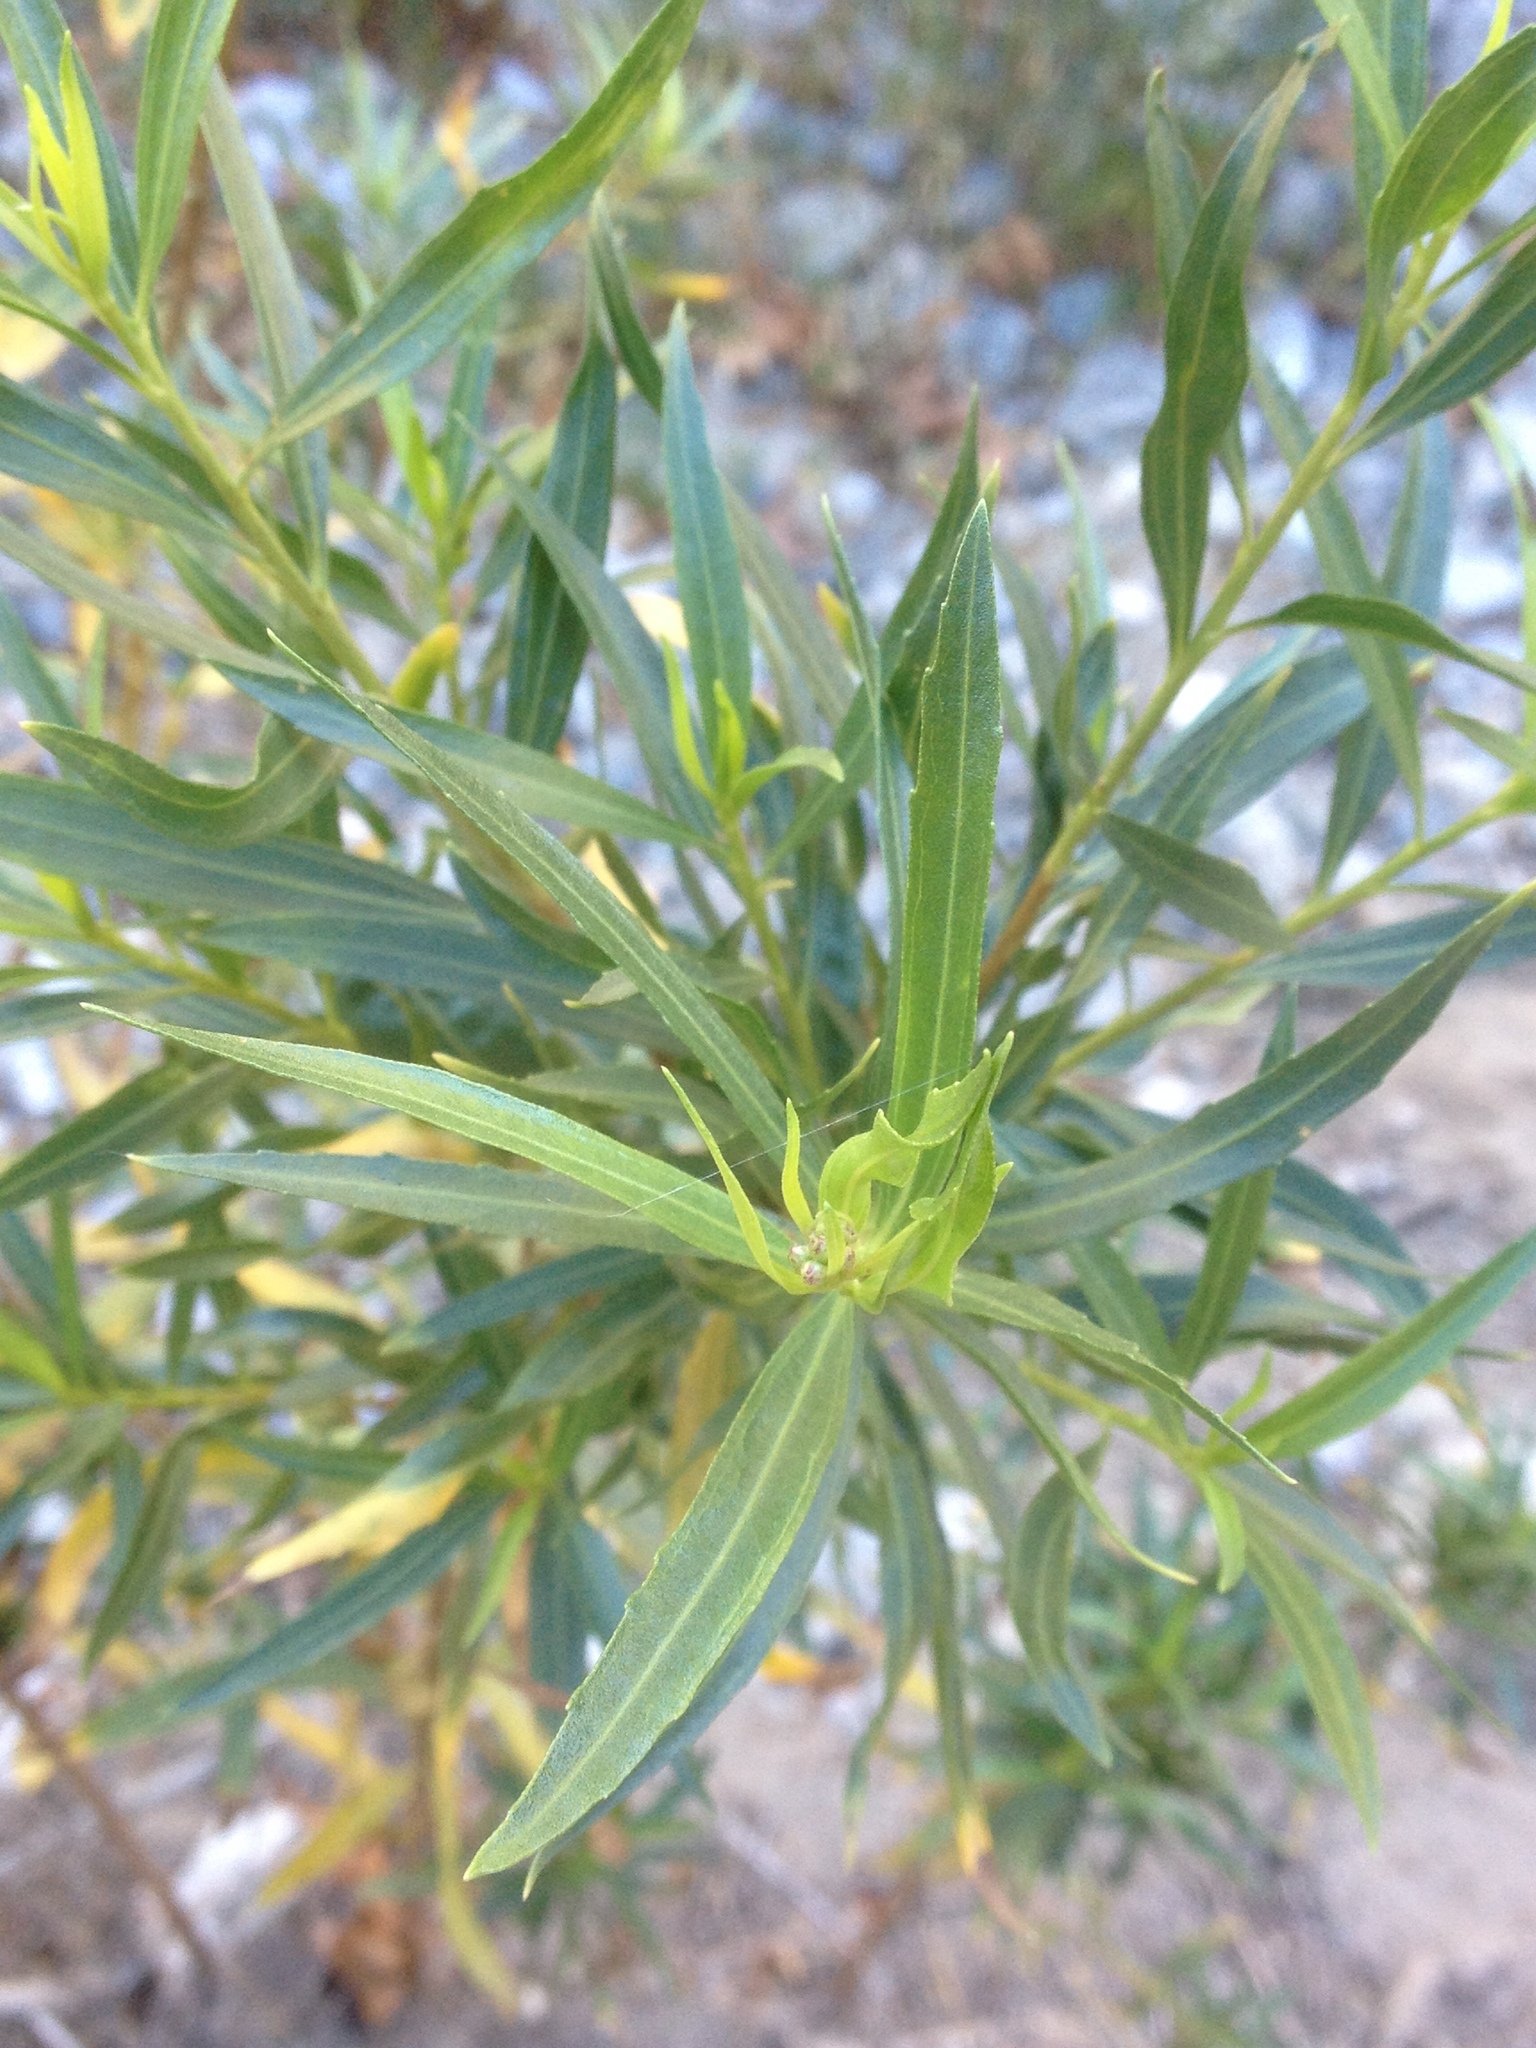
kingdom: Plantae
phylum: Tracheophyta
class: Magnoliopsida
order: Asterales
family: Asteraceae
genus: Baccharis
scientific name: Baccharis salicifolia
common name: Sticky baccharis
